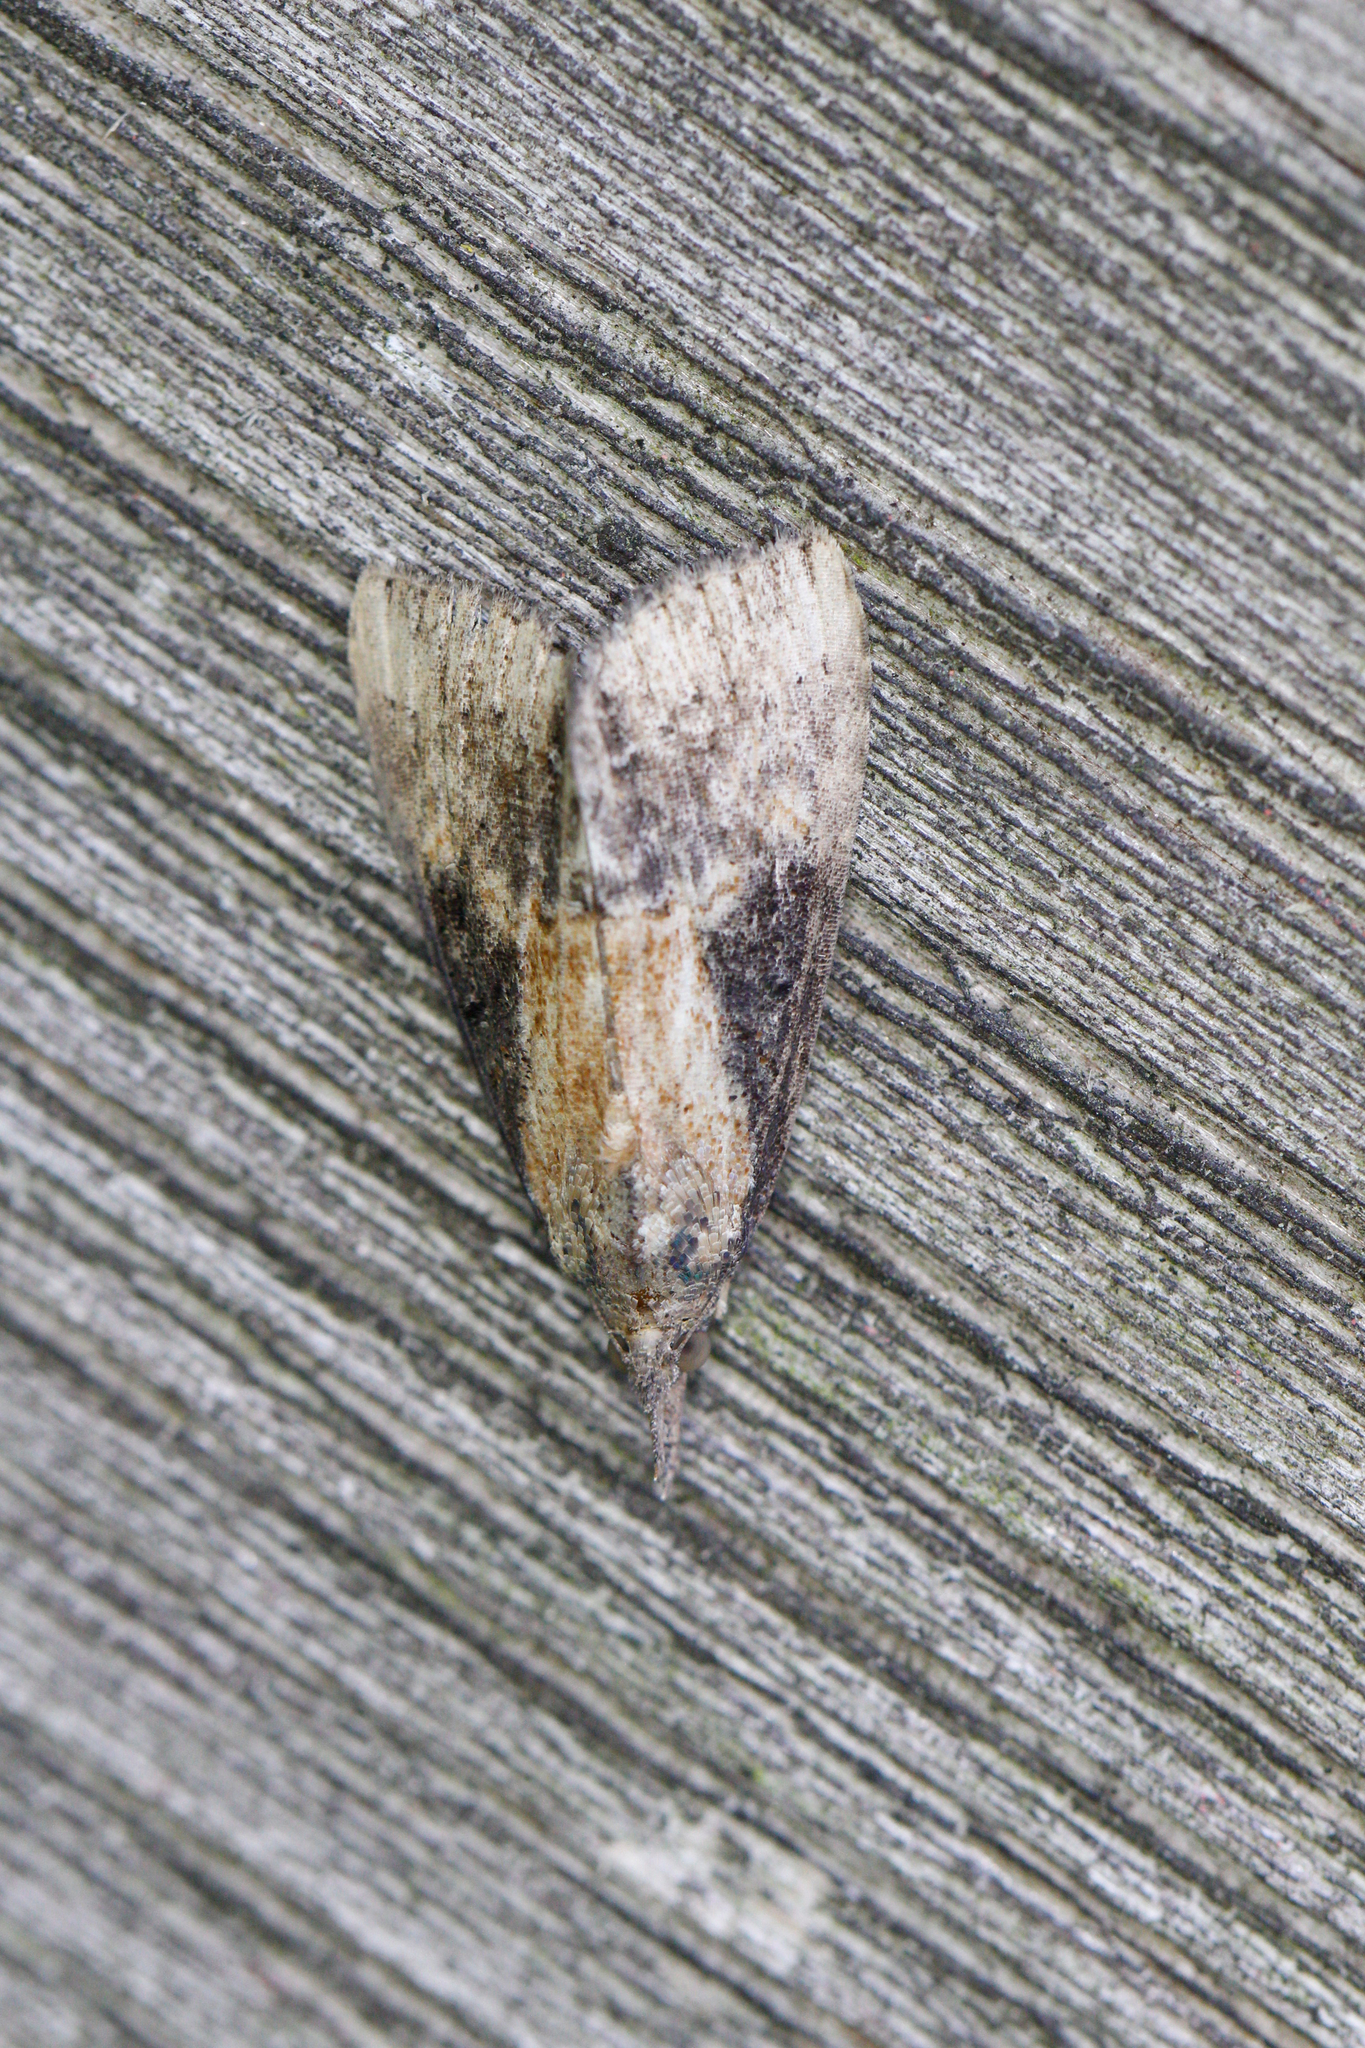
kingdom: Animalia
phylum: Arthropoda
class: Insecta
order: Lepidoptera
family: Erebidae
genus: Hypena
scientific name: Hypena scabra
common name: Green cloverworm
